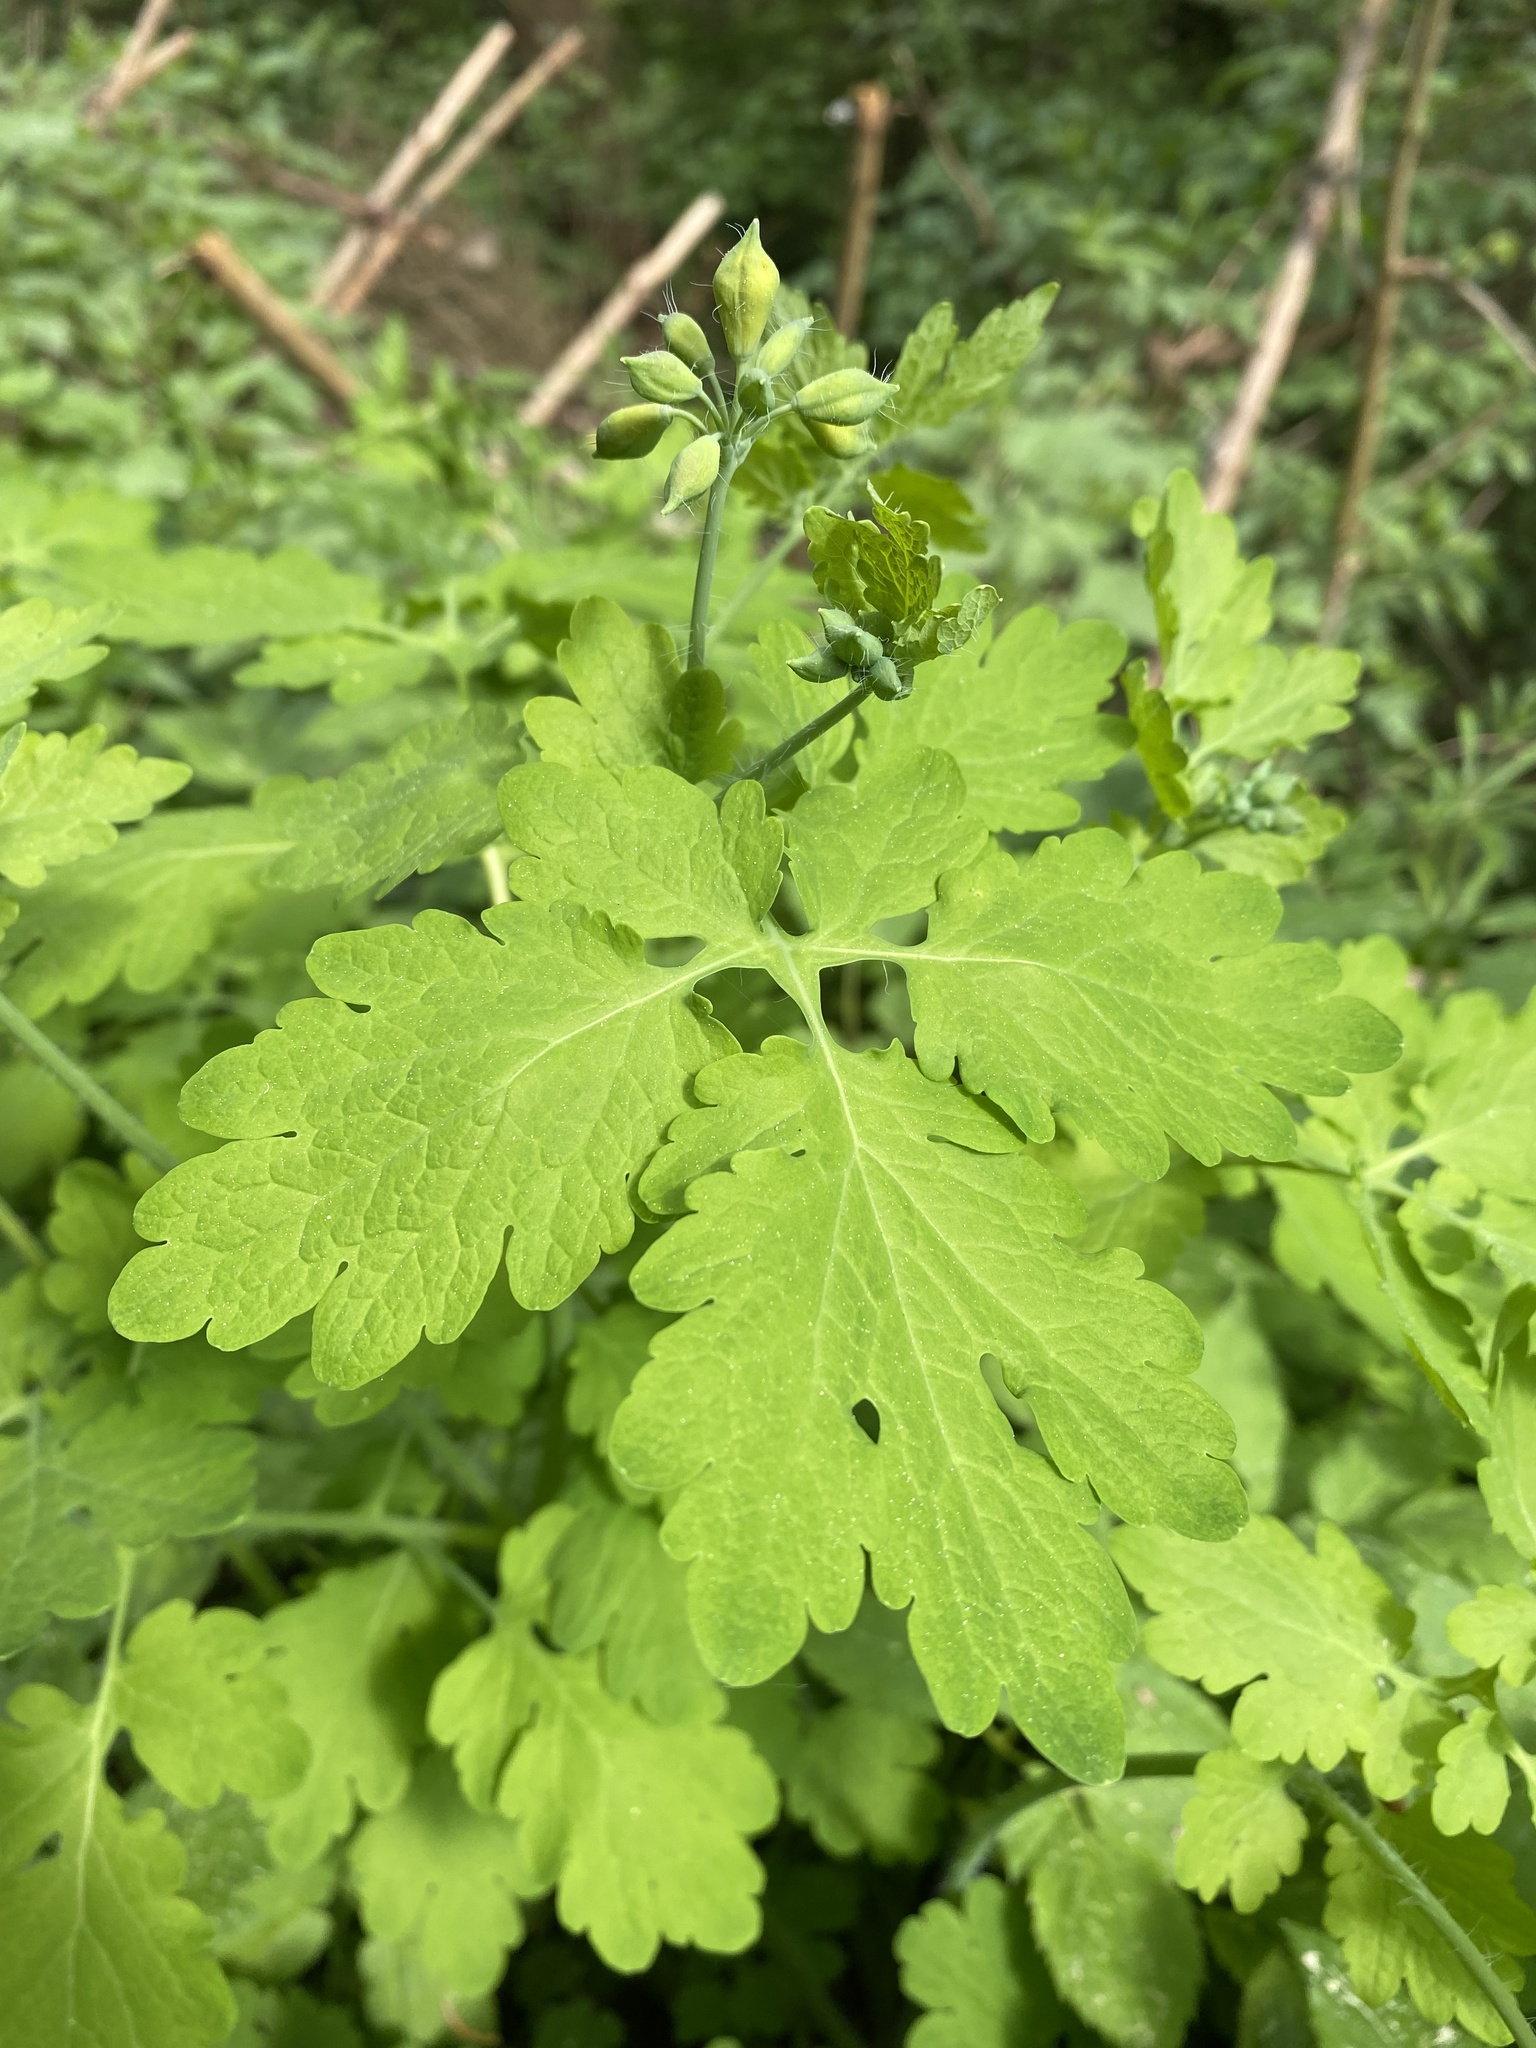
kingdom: Plantae
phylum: Tracheophyta
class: Magnoliopsida
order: Ranunculales
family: Papaveraceae
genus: Chelidonium
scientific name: Chelidonium majus
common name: Greater celandine
